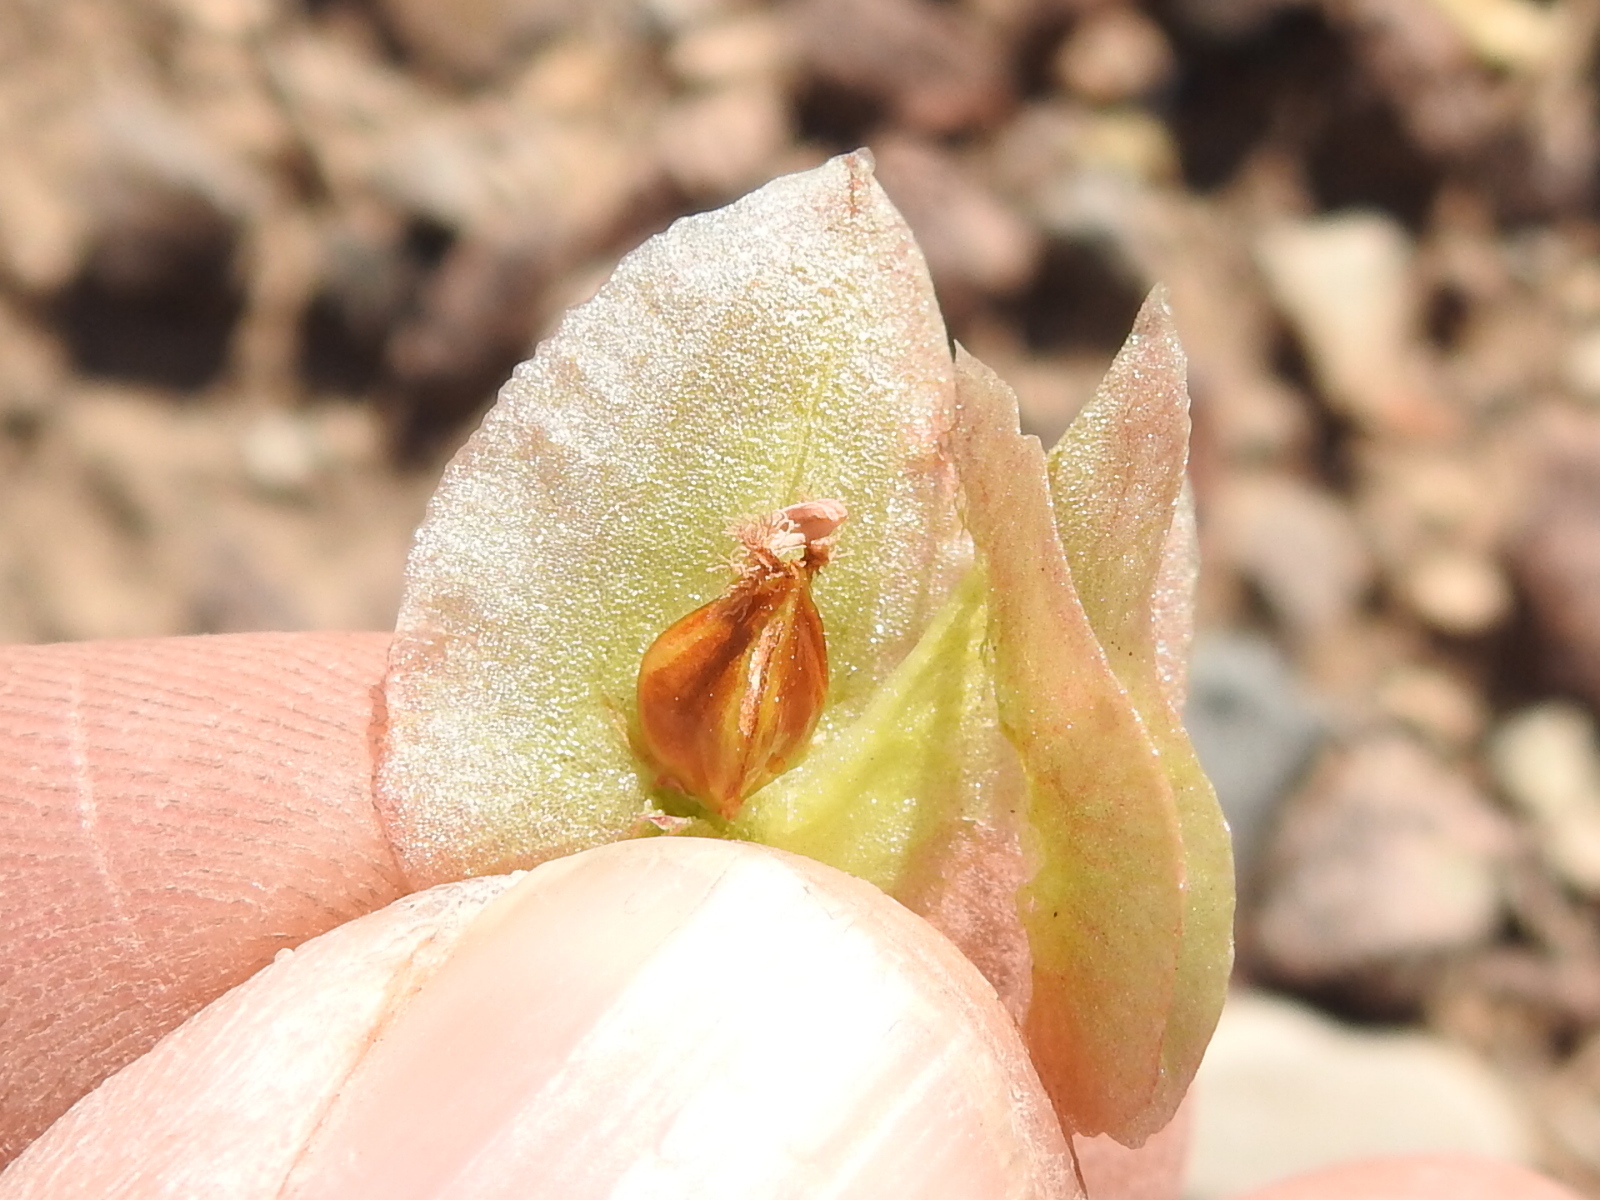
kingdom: Plantae
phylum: Tracheophyta
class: Magnoliopsida
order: Caryophyllales
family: Polygonaceae
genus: Rumex
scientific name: Rumex hymenosepalus
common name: Ganagra
